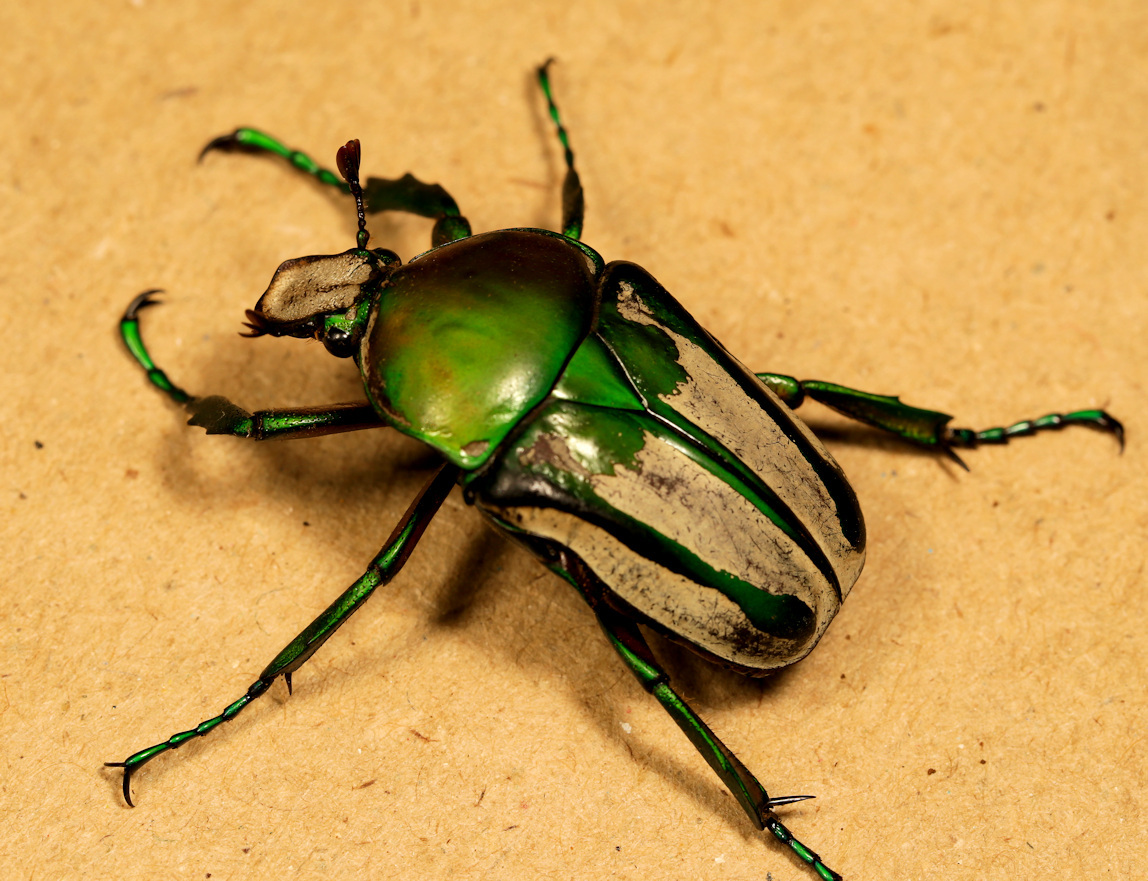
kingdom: Animalia
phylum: Arthropoda
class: Insecta
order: Coleoptera
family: Scarabaeidae
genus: Rhamphorrhina
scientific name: Rhamphorrhina splendens
